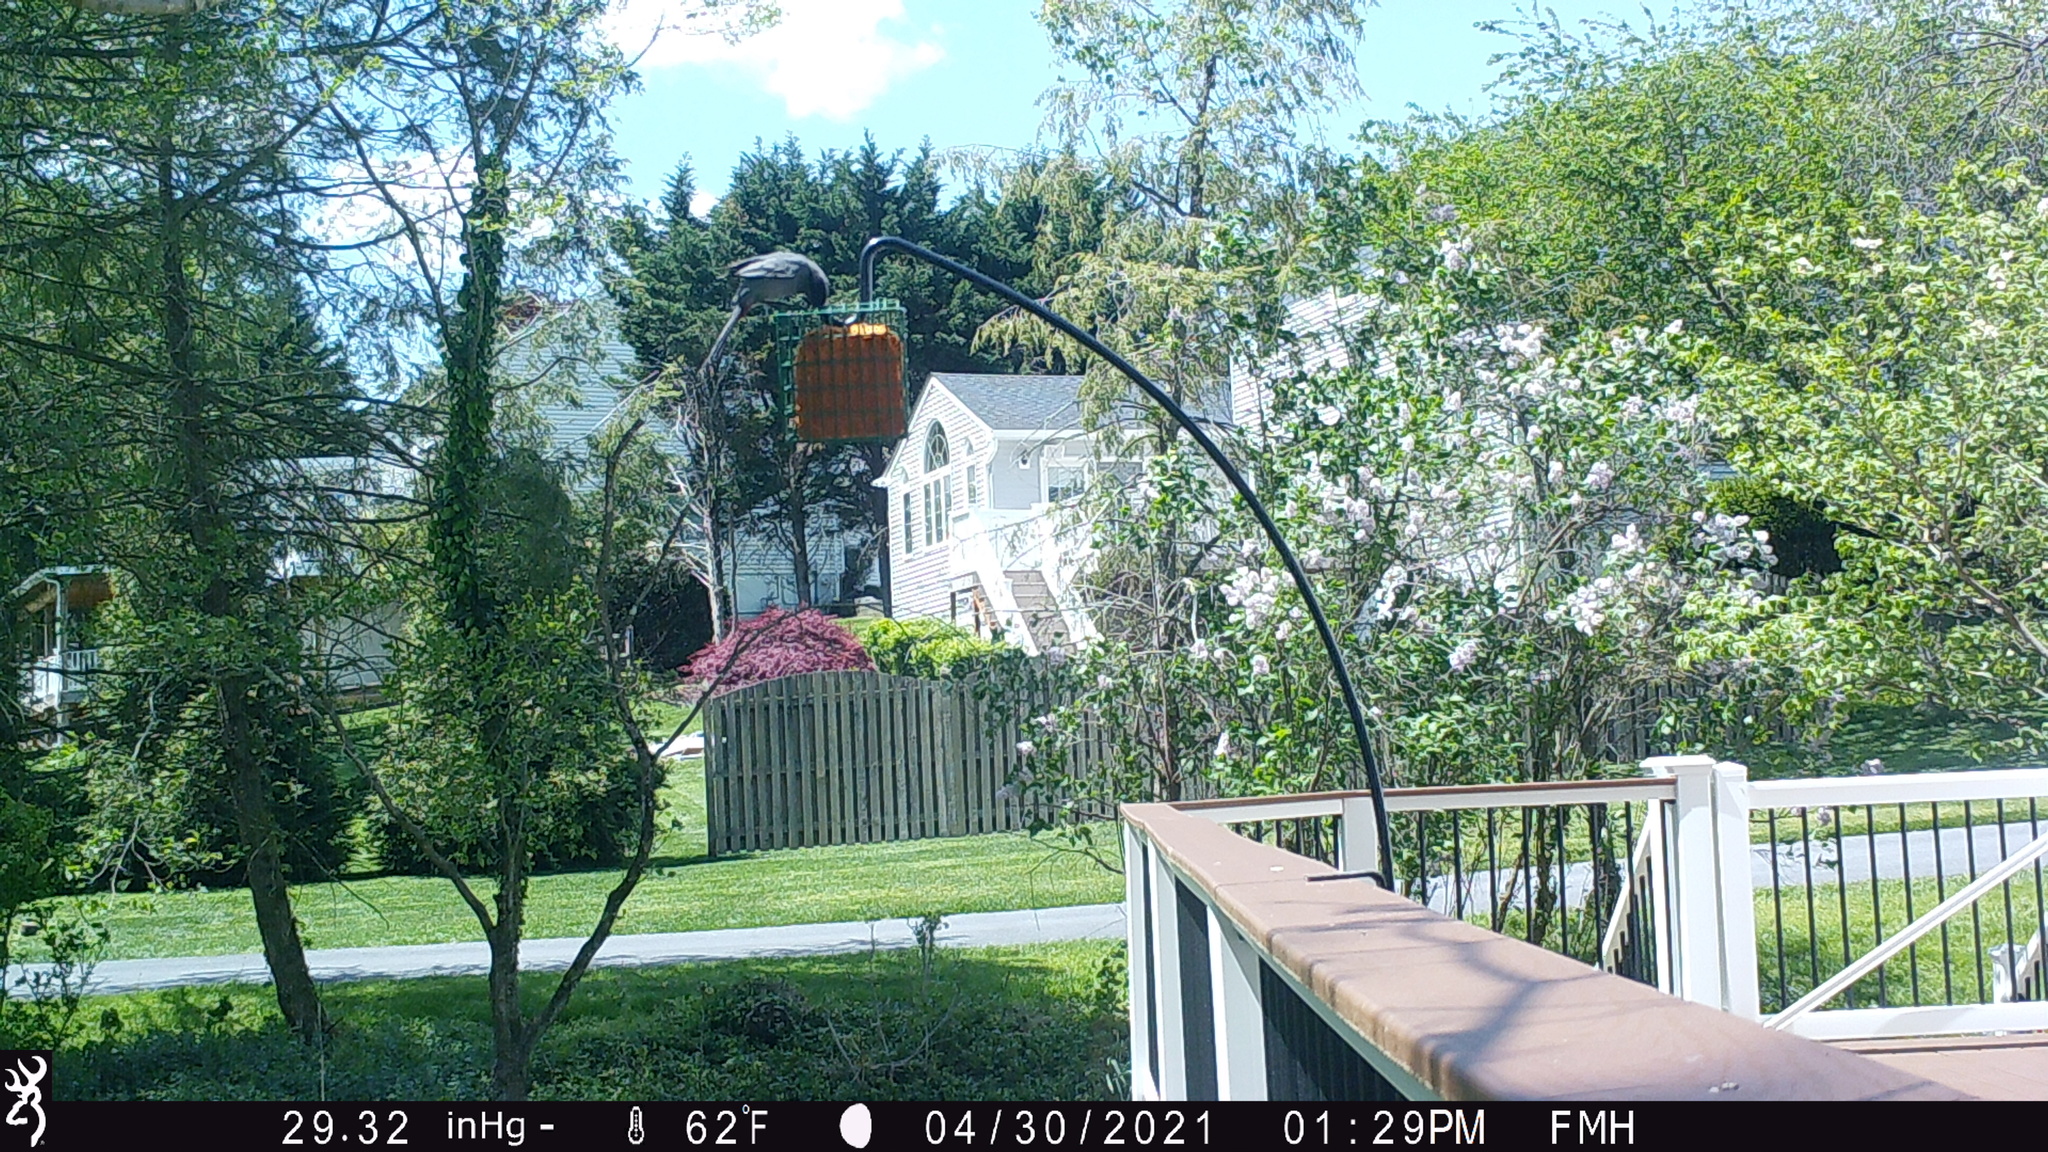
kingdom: Animalia
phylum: Chordata
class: Aves
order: Passeriformes
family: Mimidae
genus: Dumetella
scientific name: Dumetella carolinensis
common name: Gray catbird
